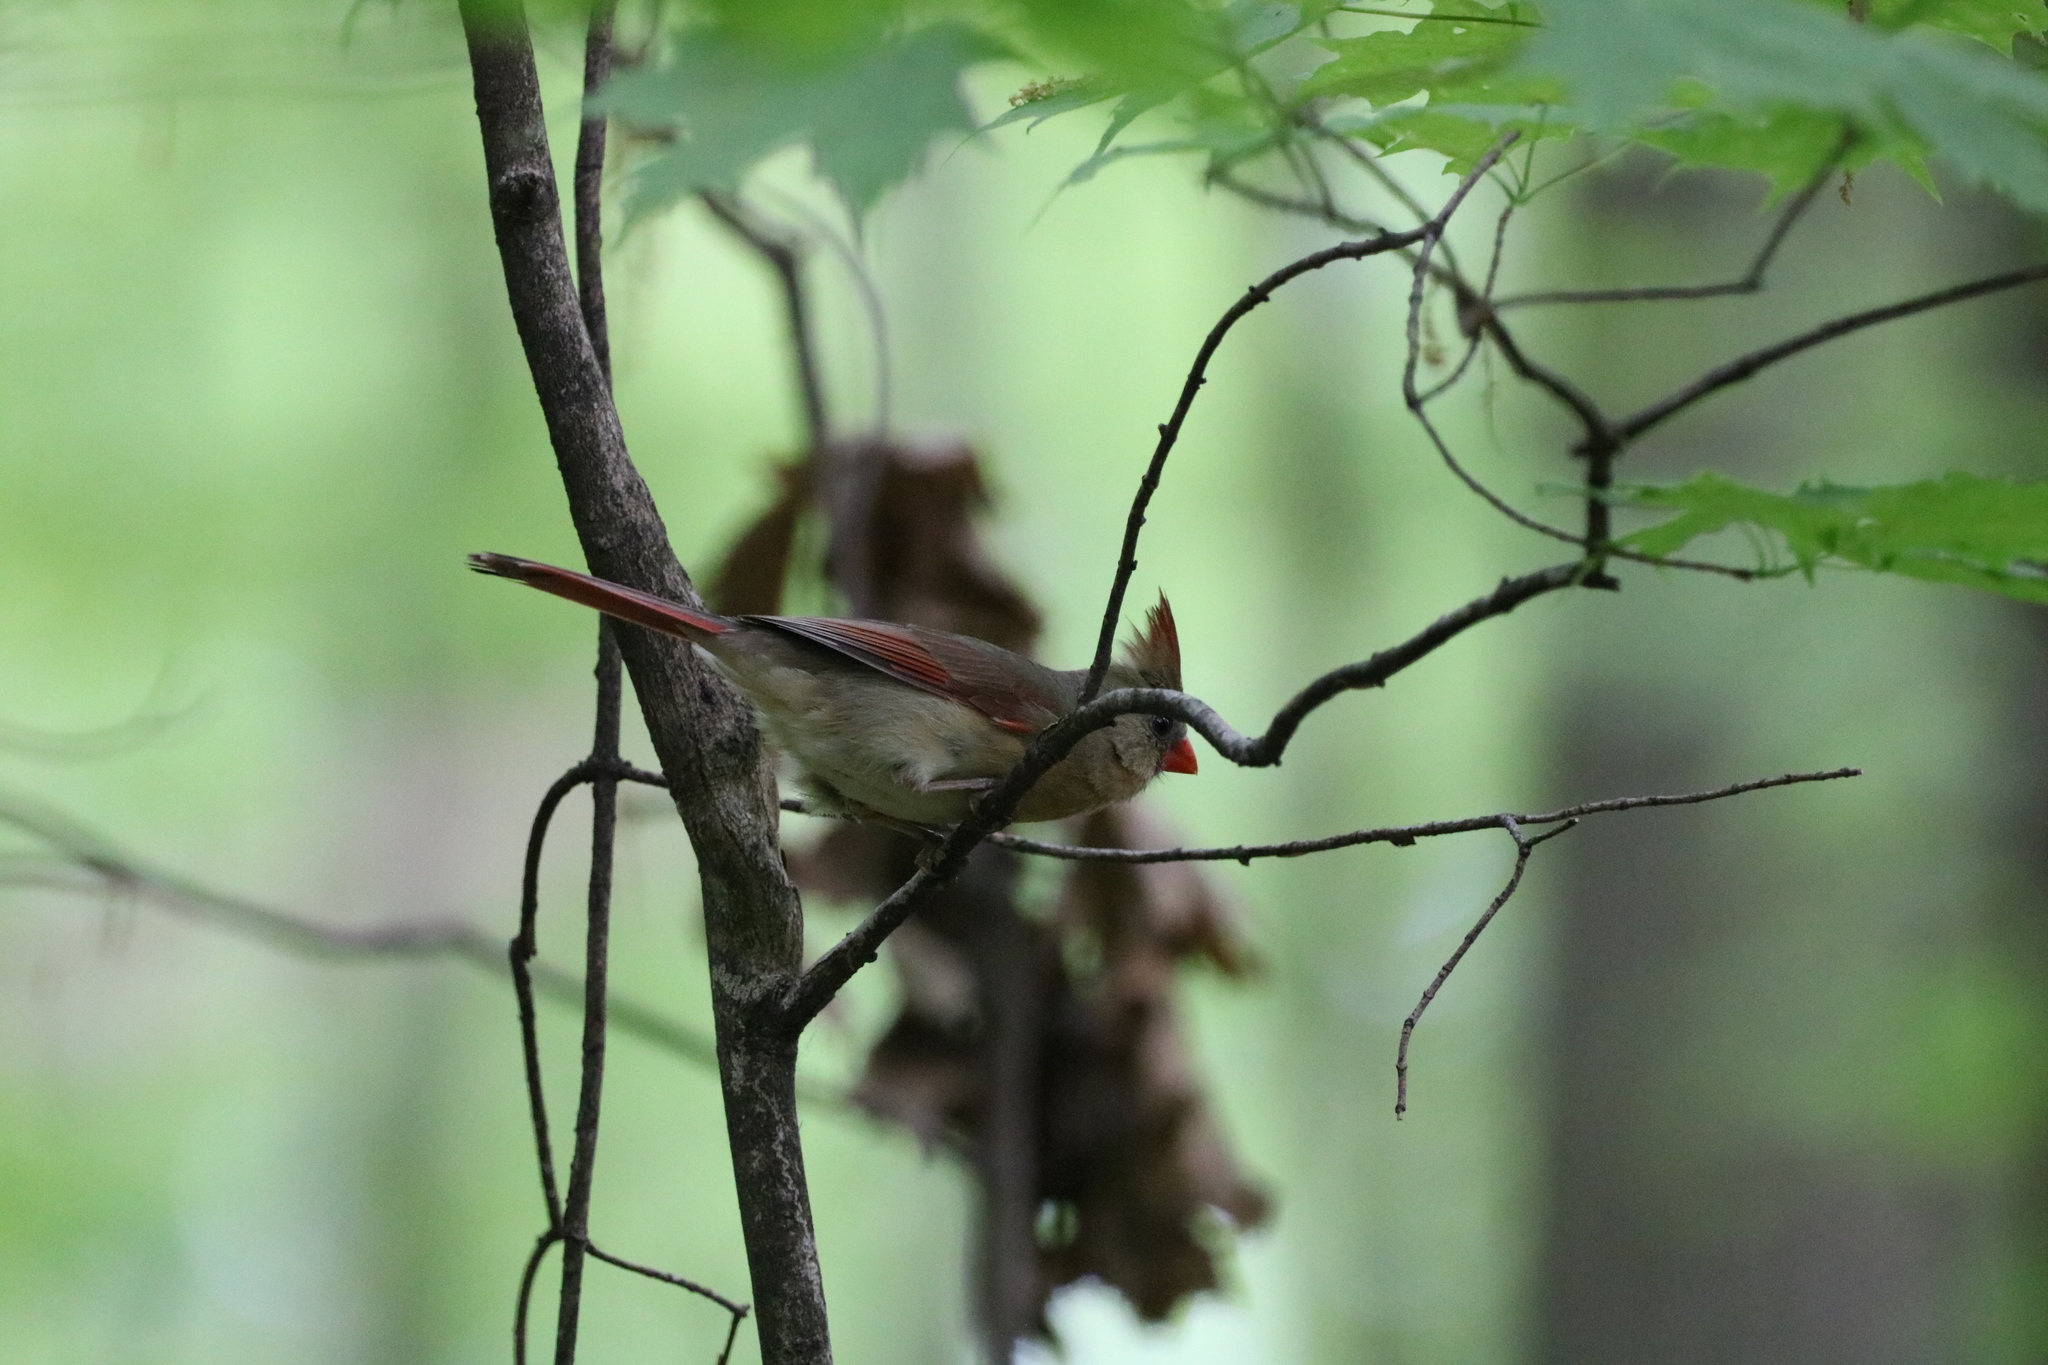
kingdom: Animalia
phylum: Chordata
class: Aves
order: Passeriformes
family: Cardinalidae
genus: Cardinalis
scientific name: Cardinalis cardinalis
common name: Northern cardinal
